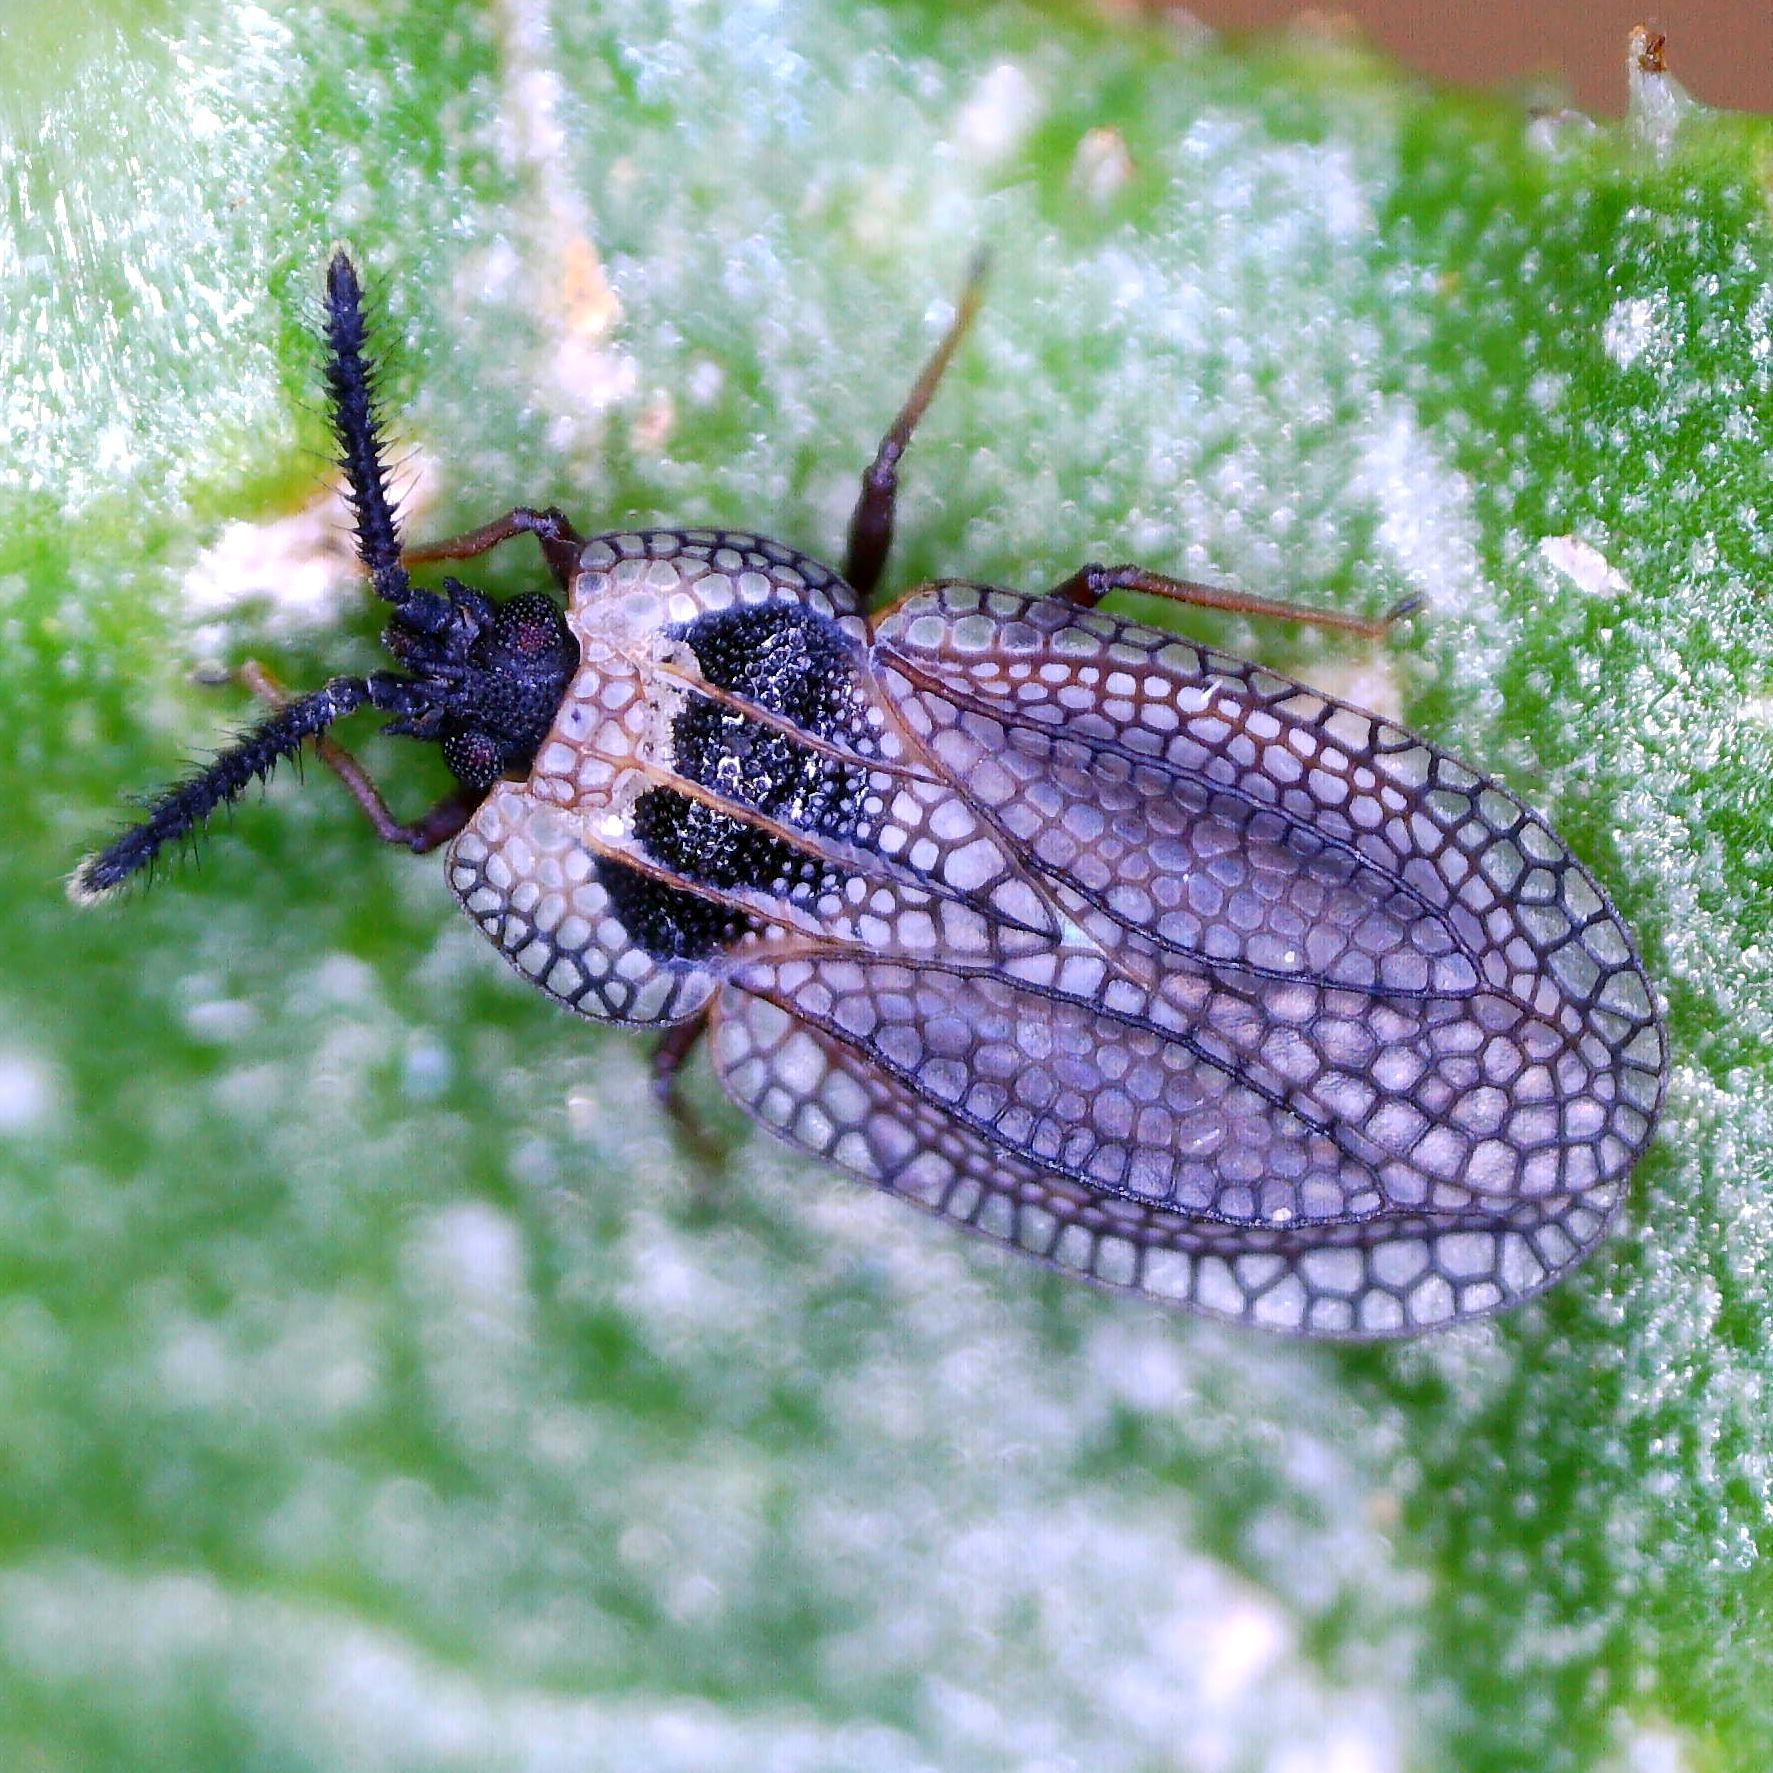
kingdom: Animalia
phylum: Arthropoda
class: Insecta
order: Hemiptera
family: Tingidae
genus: Dictyonota
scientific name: Dictyonota tricornis
